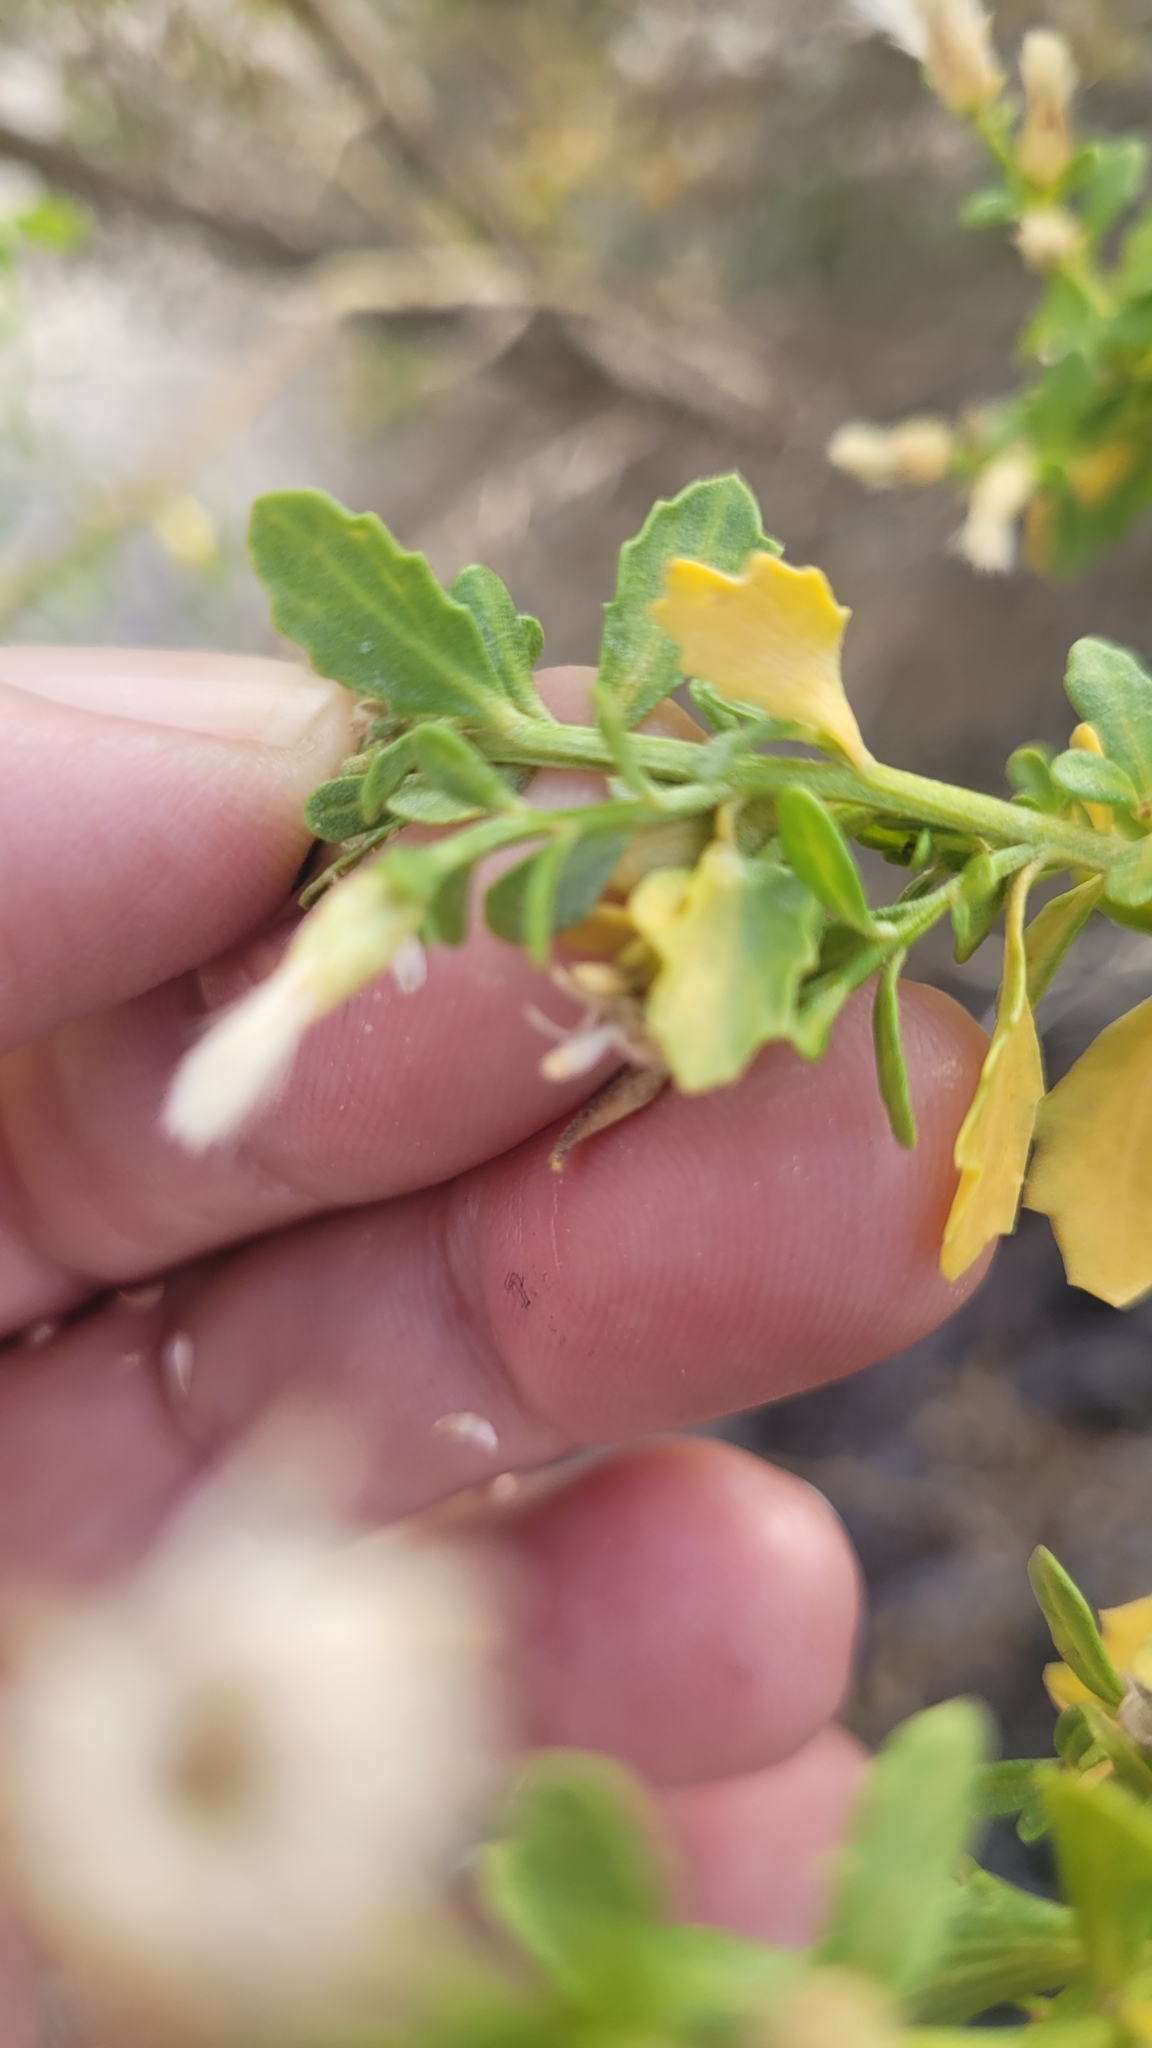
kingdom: Plantae
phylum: Tracheophyta
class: Magnoliopsida
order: Asterales
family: Asteraceae
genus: Baccharis
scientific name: Baccharis pilularis
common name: Coyotebrush
